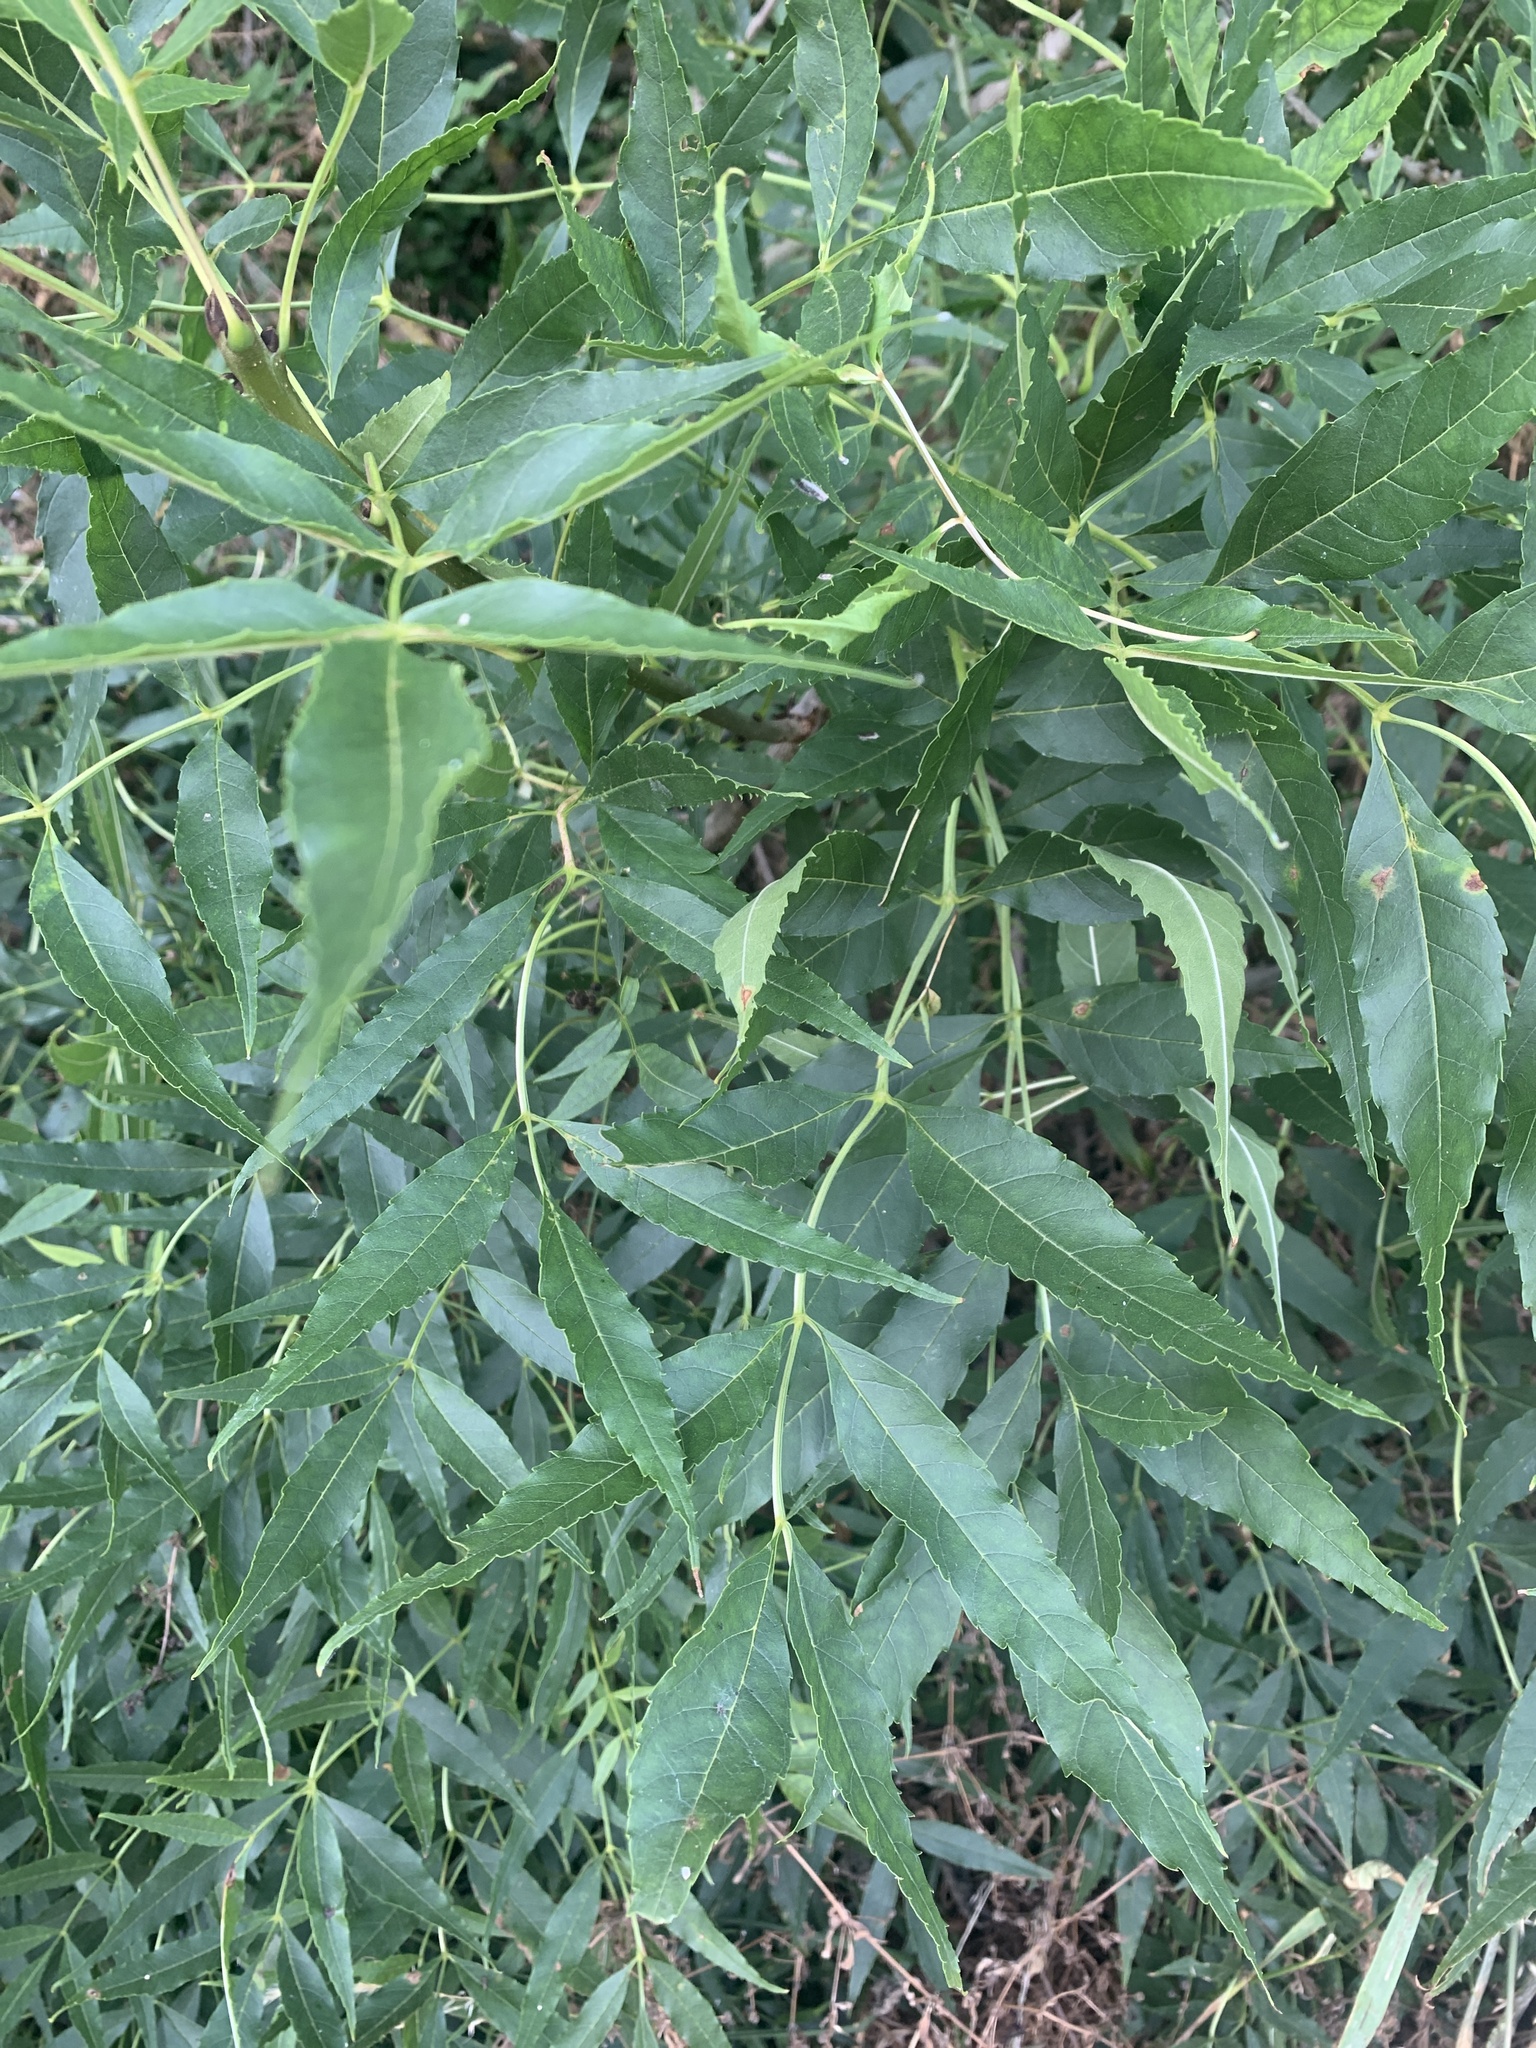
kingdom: Plantae
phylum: Tracheophyta
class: Magnoliopsida
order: Lamiales
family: Oleaceae
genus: Fraxinus
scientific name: Fraxinus excelsior
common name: European ash
